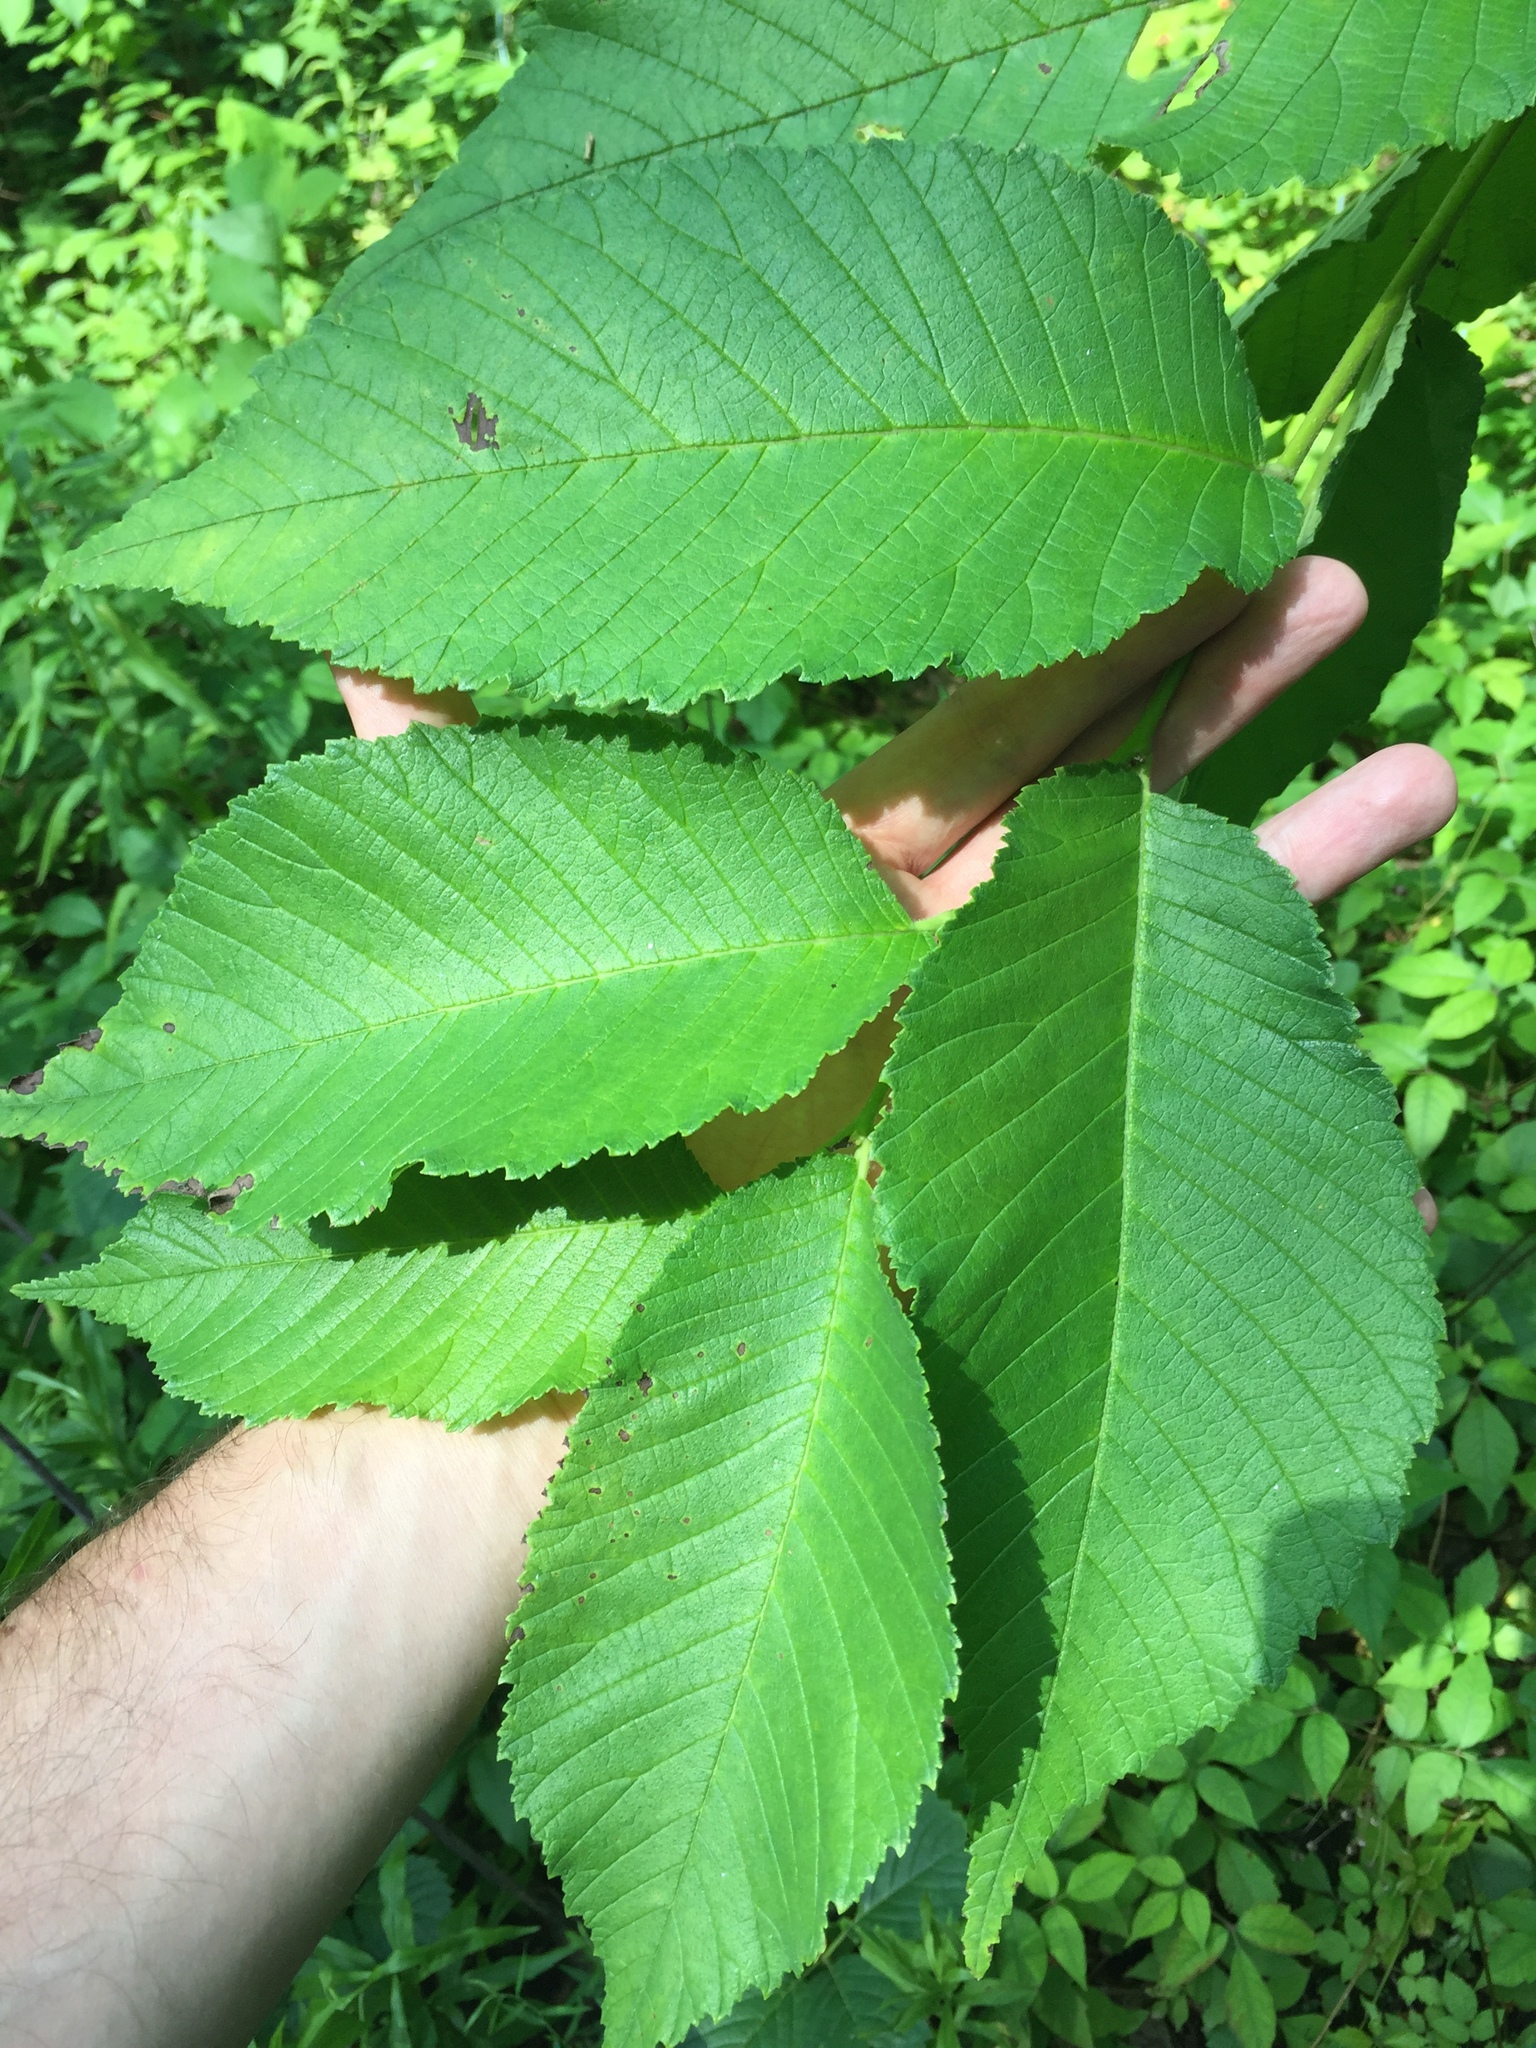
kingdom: Plantae
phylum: Tracheophyta
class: Magnoliopsida
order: Rosales
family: Ulmaceae
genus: Ulmus
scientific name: Ulmus rubra
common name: Slippery elm
